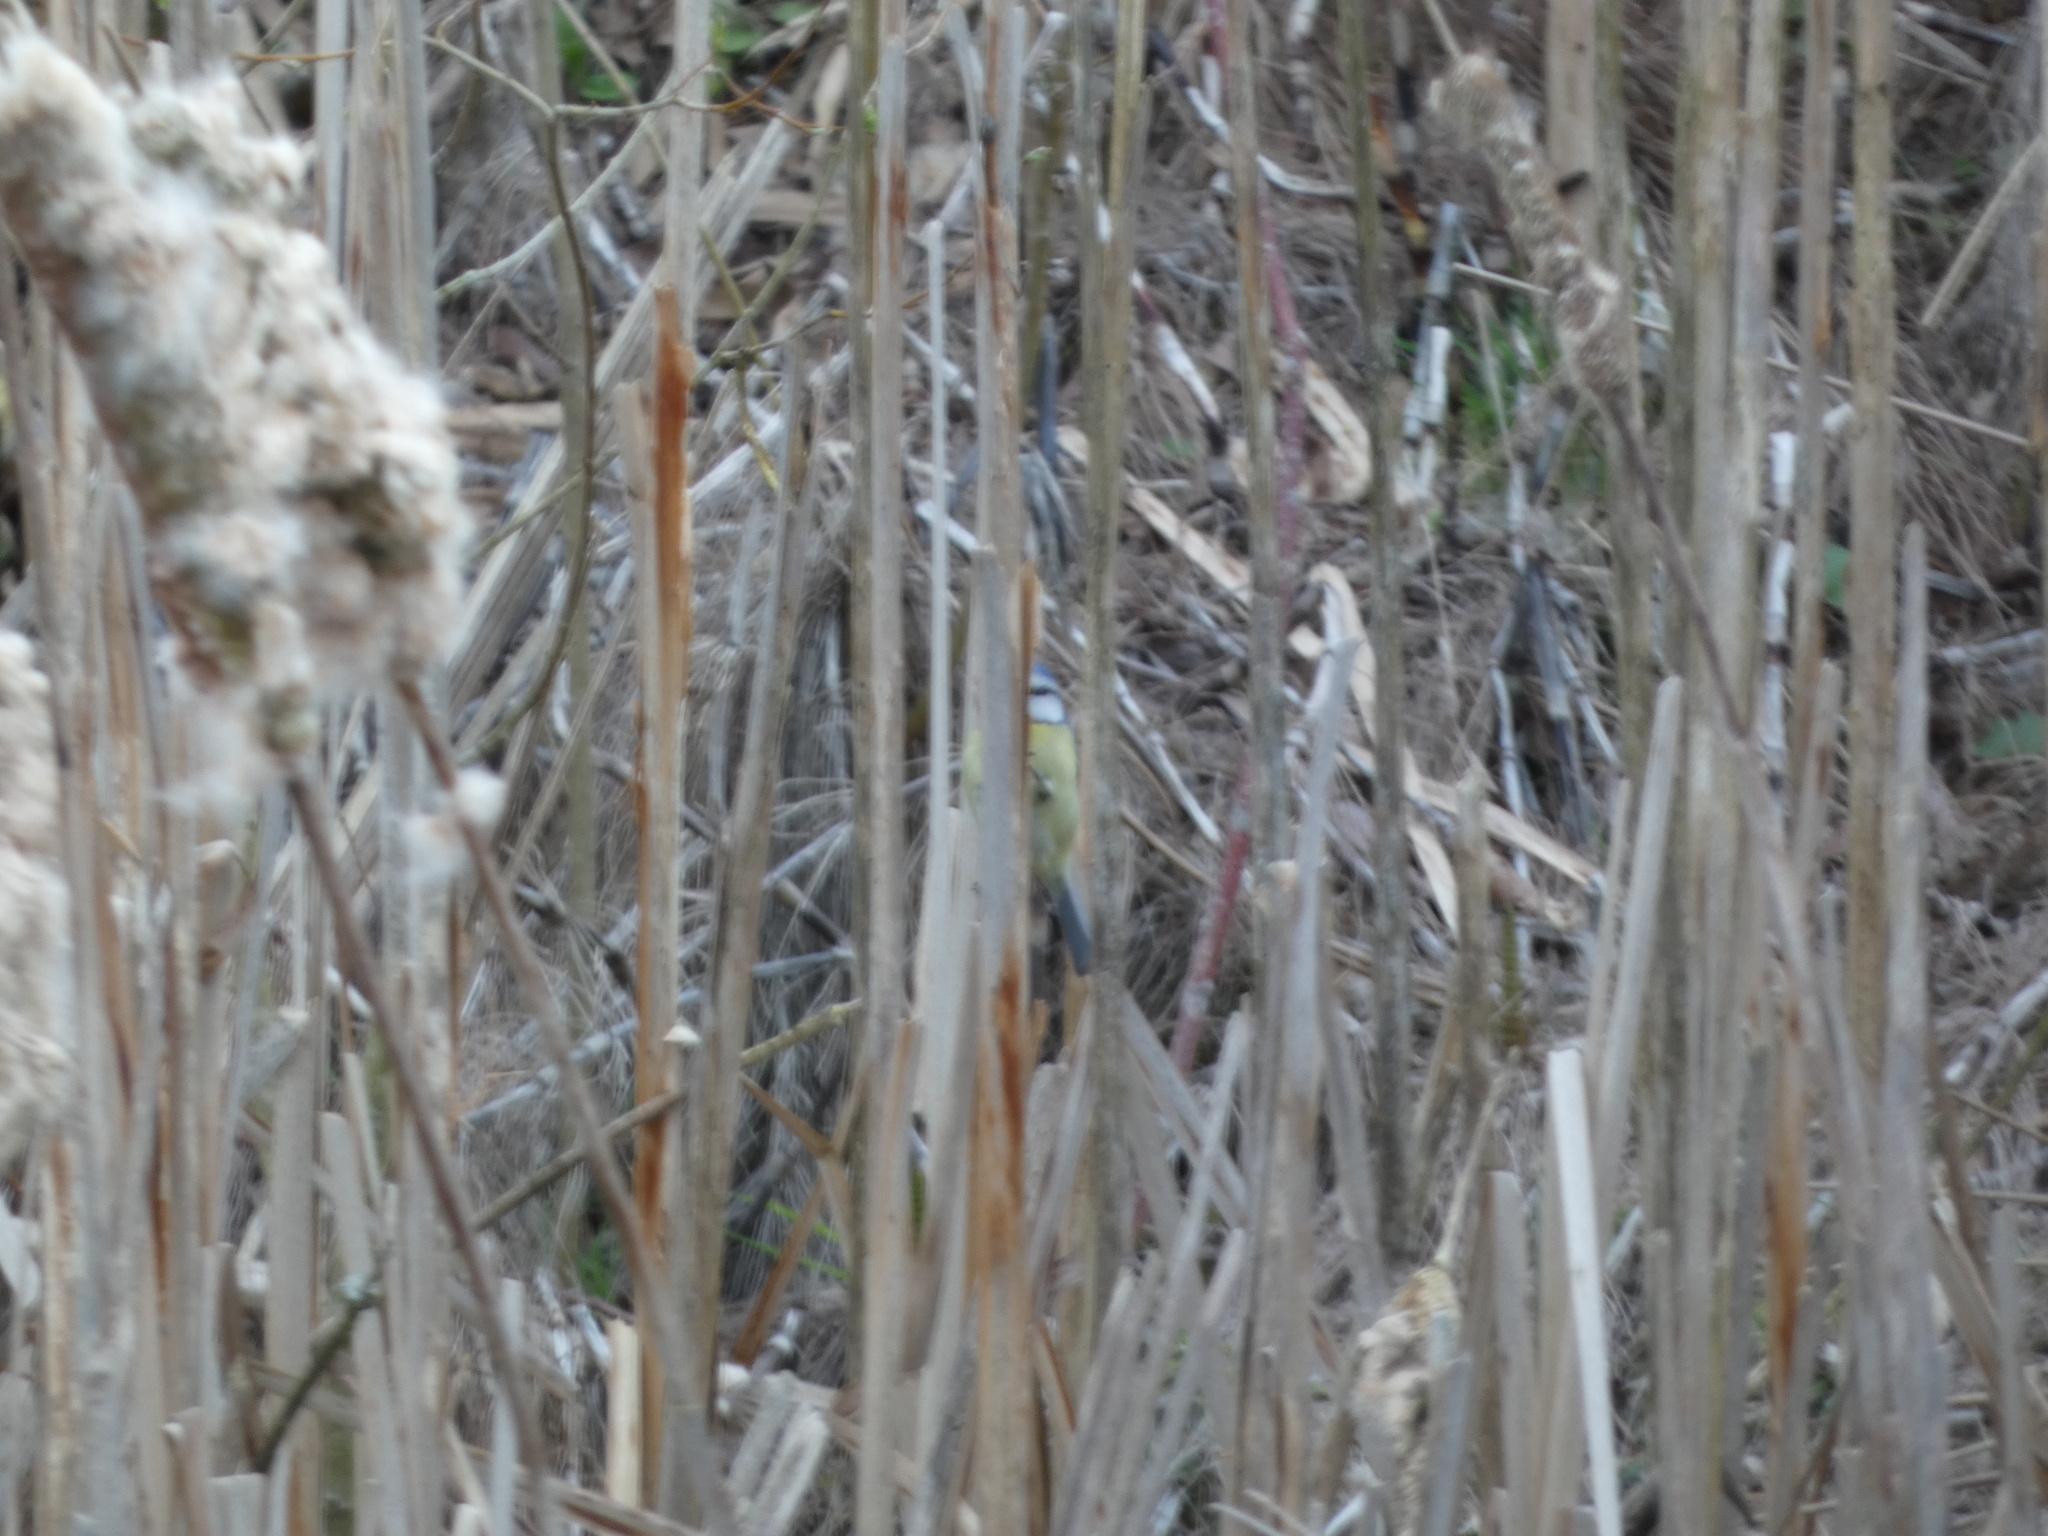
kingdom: Animalia
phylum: Chordata
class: Aves
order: Passeriformes
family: Paridae
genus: Cyanistes
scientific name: Cyanistes caeruleus
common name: Eurasian blue tit
